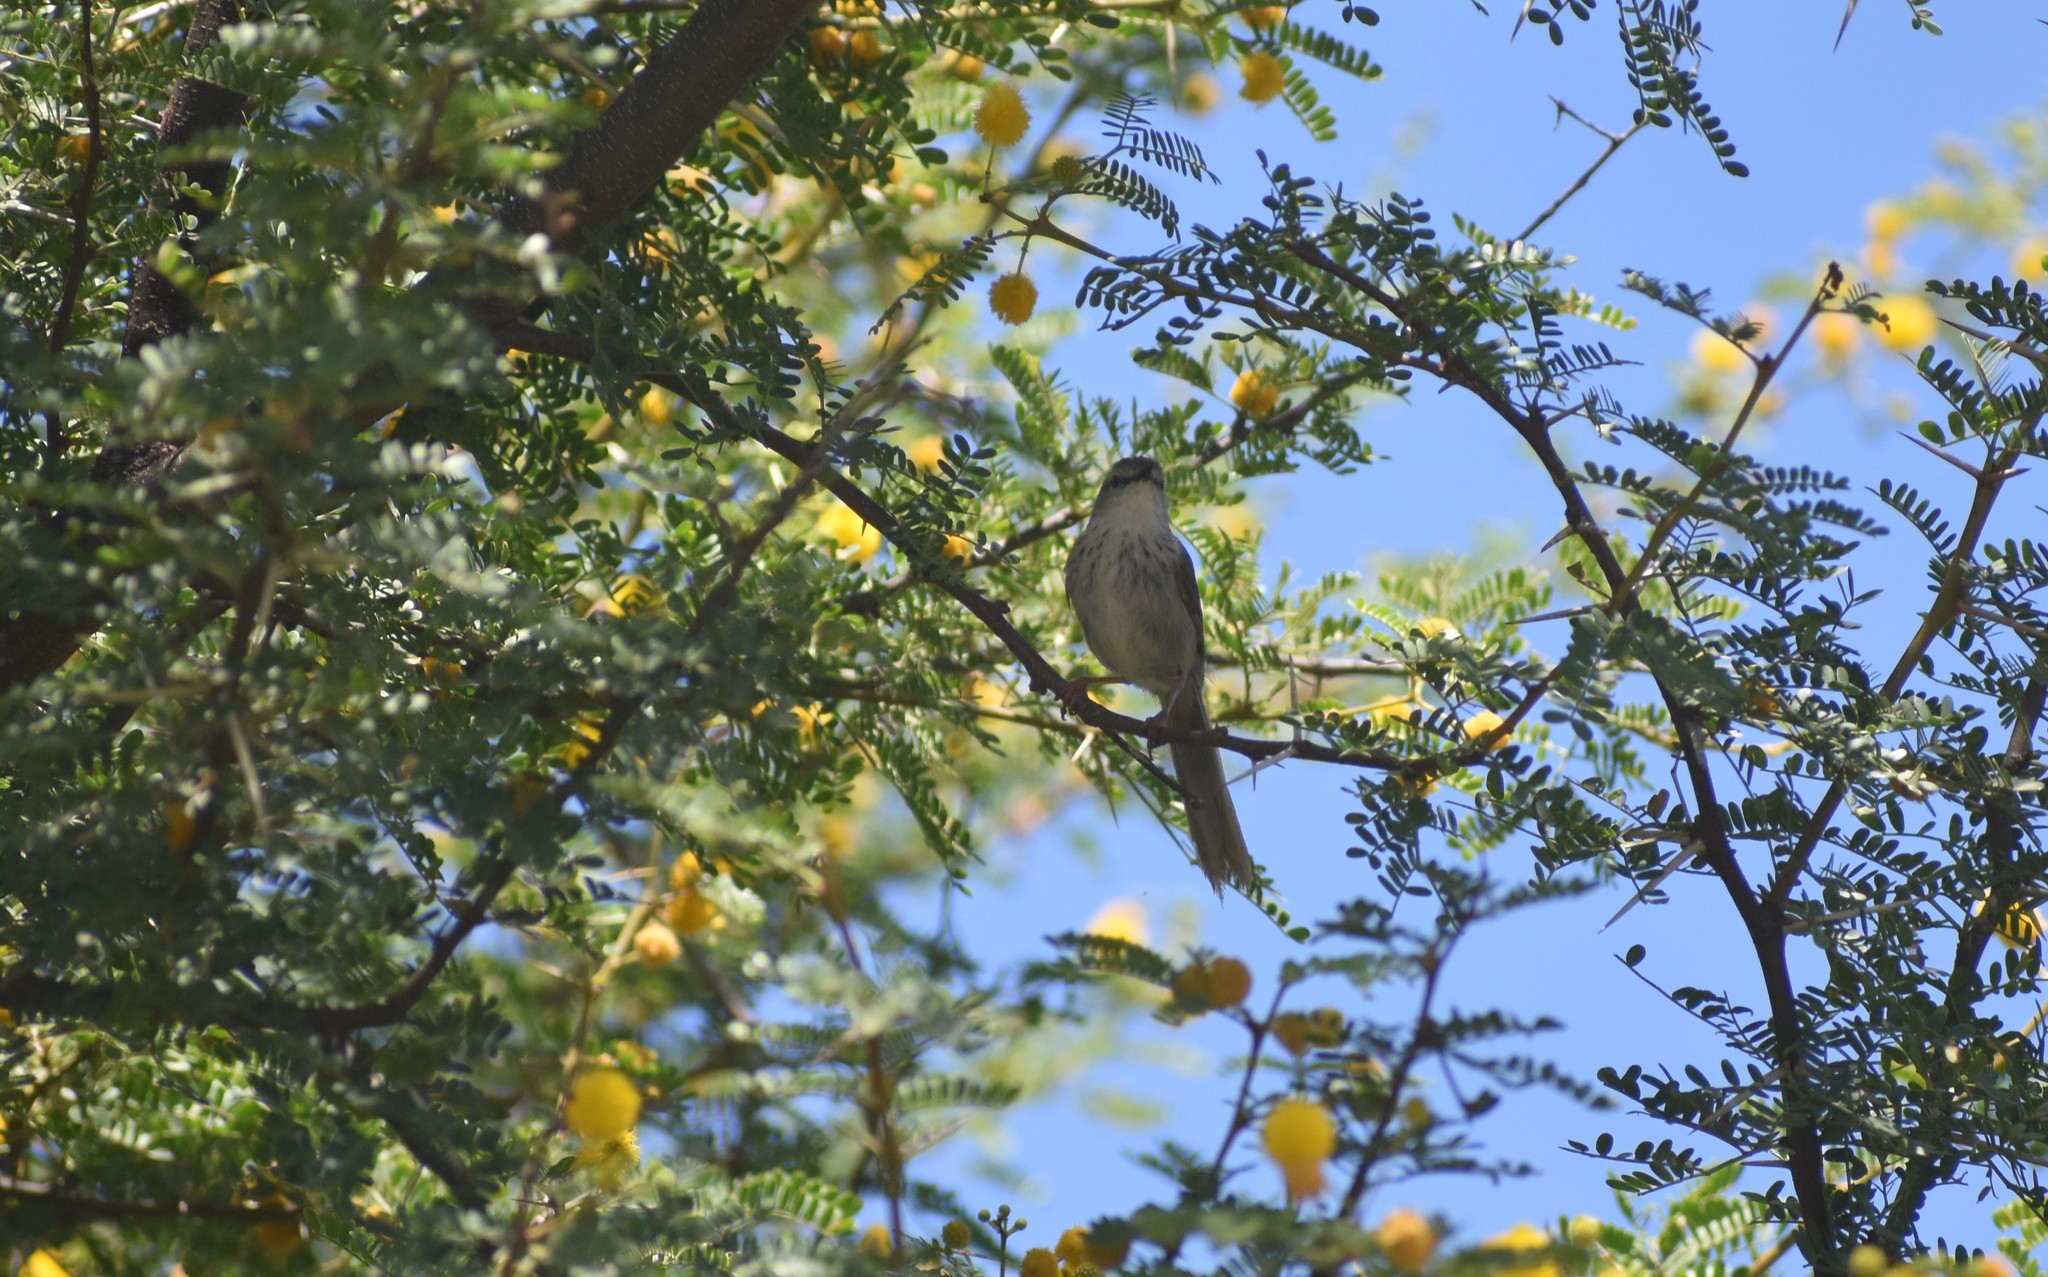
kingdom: Animalia
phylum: Chordata
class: Aves
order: Passeriformes
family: Cisticolidae
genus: Phragmacia
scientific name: Phragmacia substriata
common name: Namaqua warbler
